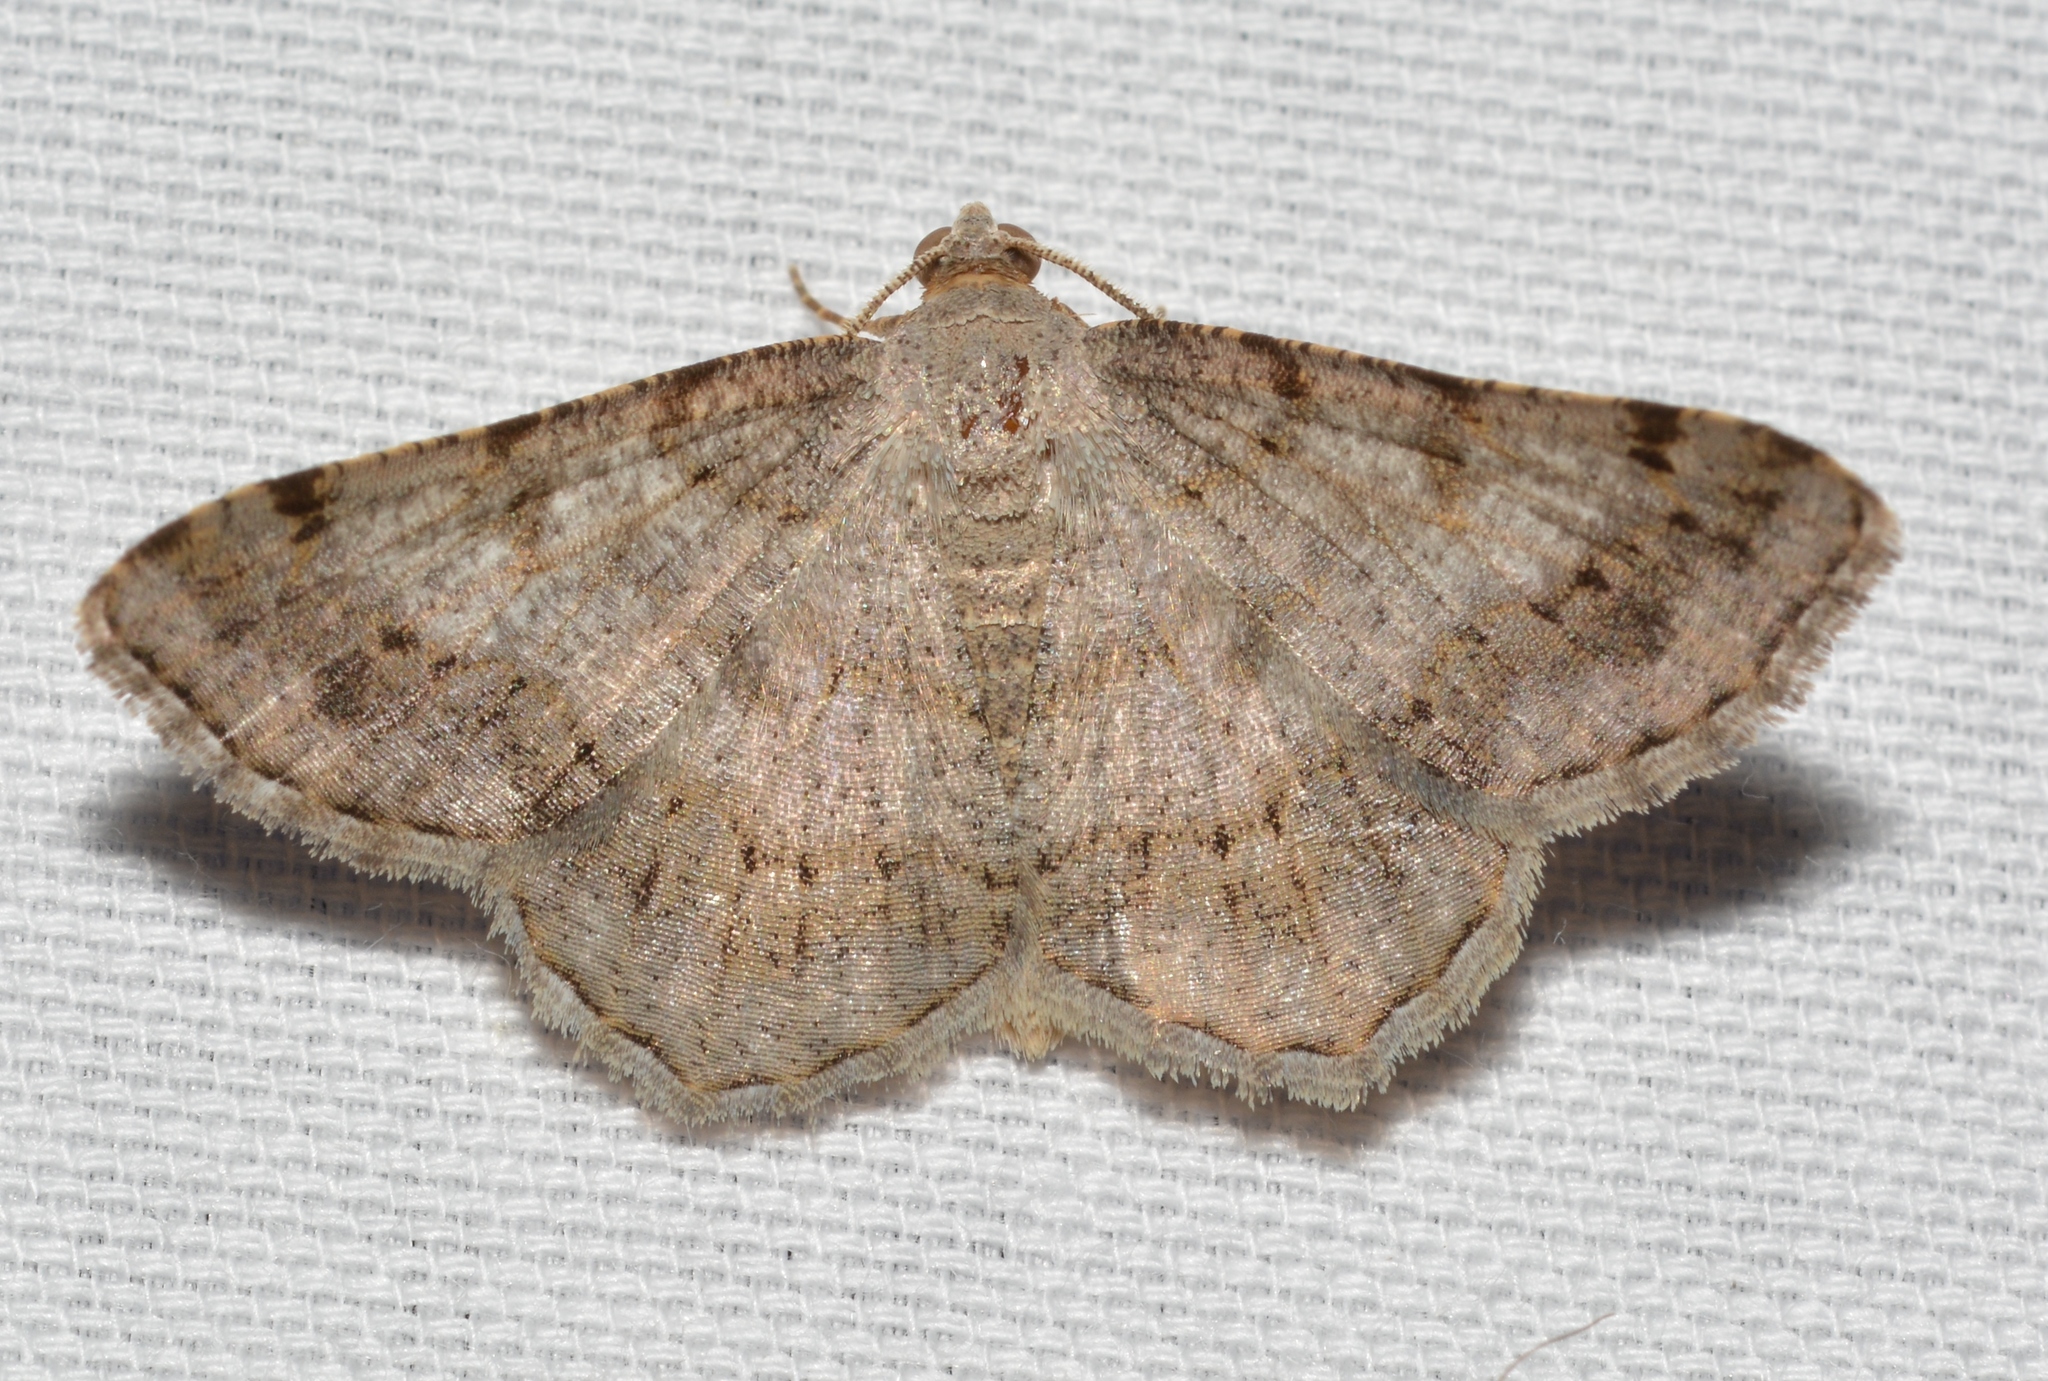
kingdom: Animalia
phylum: Arthropoda
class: Insecta
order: Lepidoptera
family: Geometridae
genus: Digrammia
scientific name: Digrammia ocellinata
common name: Faint-spotted angle
